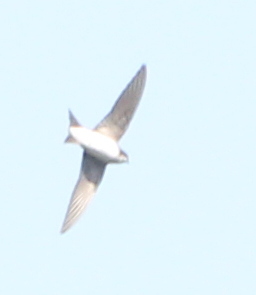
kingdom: Animalia
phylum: Chordata
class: Aves
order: Passeriformes
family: Hirundinidae
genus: Delichon
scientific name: Delichon urbicum
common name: Common house martin
